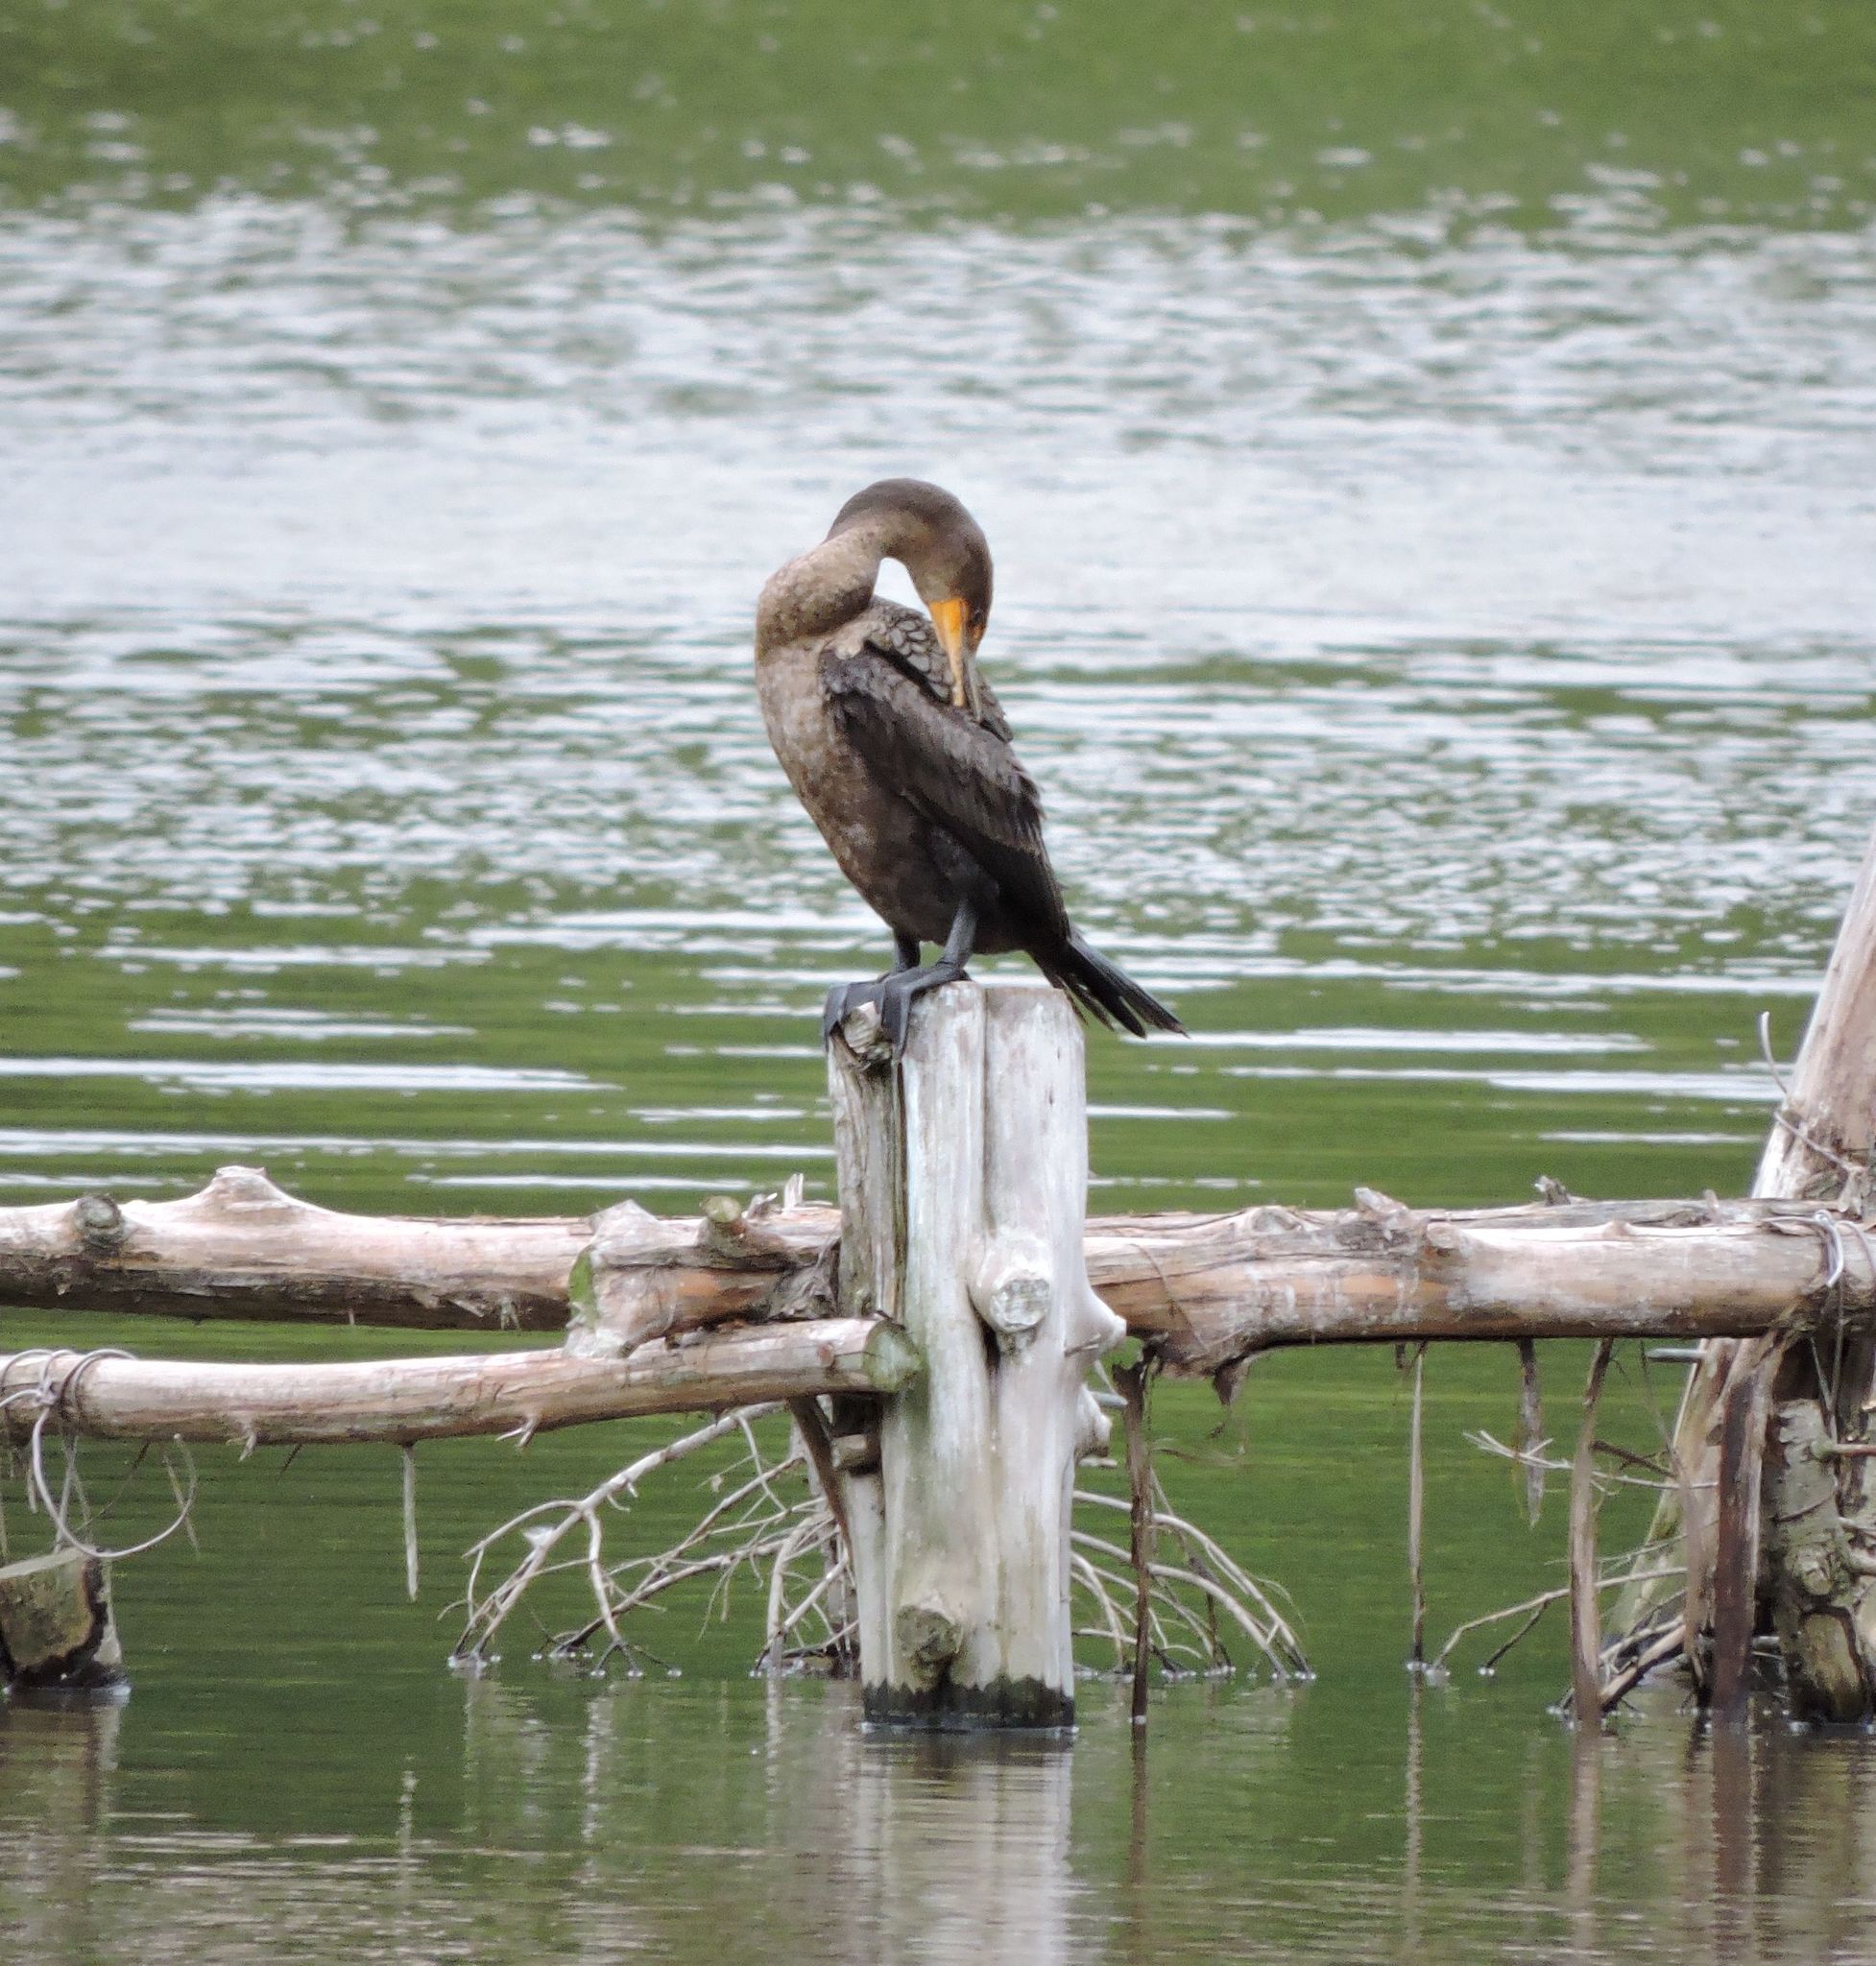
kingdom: Animalia
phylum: Chordata
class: Aves
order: Suliformes
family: Phalacrocoracidae
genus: Phalacrocorax
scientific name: Phalacrocorax auritus
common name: Double-crested cormorant
